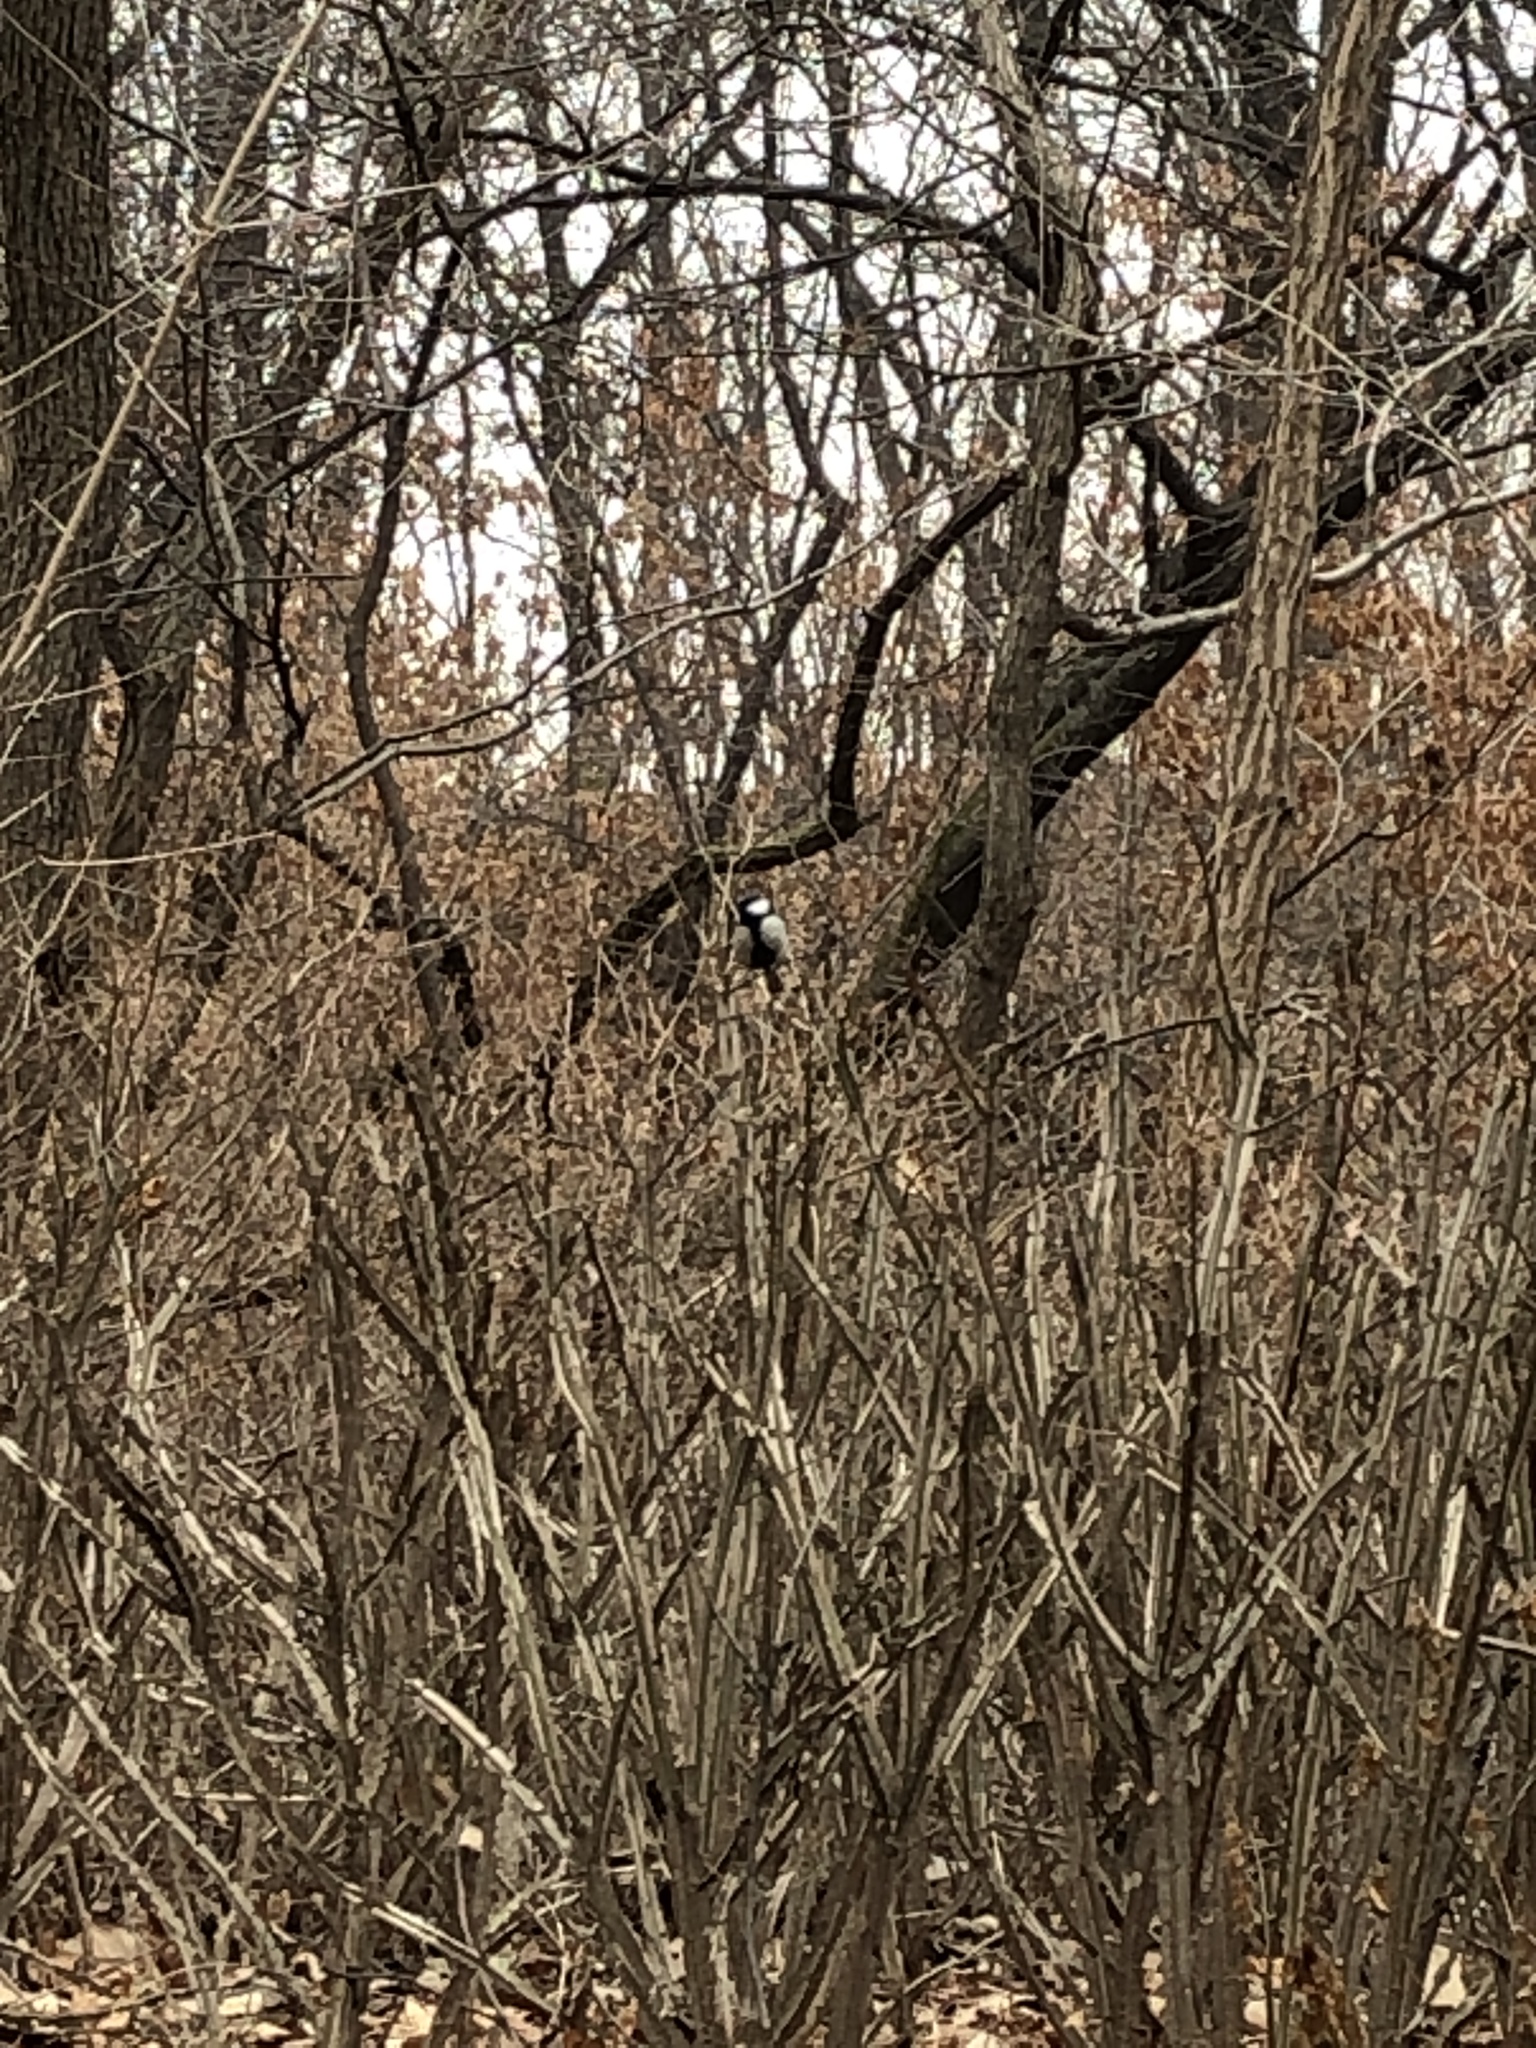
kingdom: Animalia
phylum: Chordata
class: Aves
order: Passeriformes
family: Paridae
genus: Parus
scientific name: Parus minor
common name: Japanese tit
